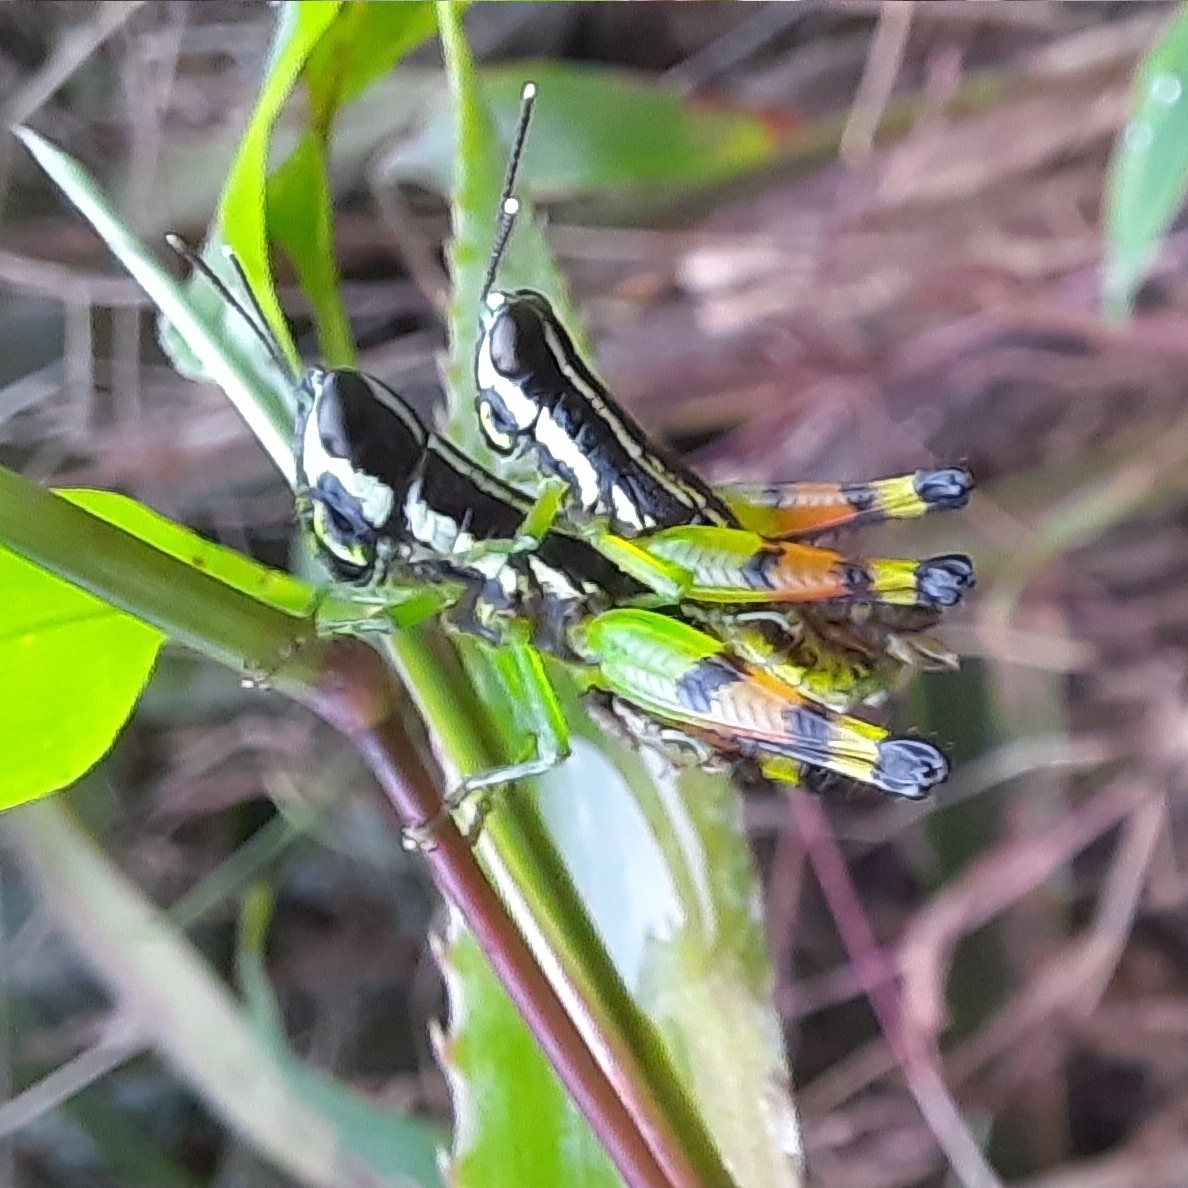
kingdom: Animalia
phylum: Arthropoda
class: Insecta
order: Orthoptera
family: Acrididae
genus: Chitaura
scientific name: Chitaura indica
